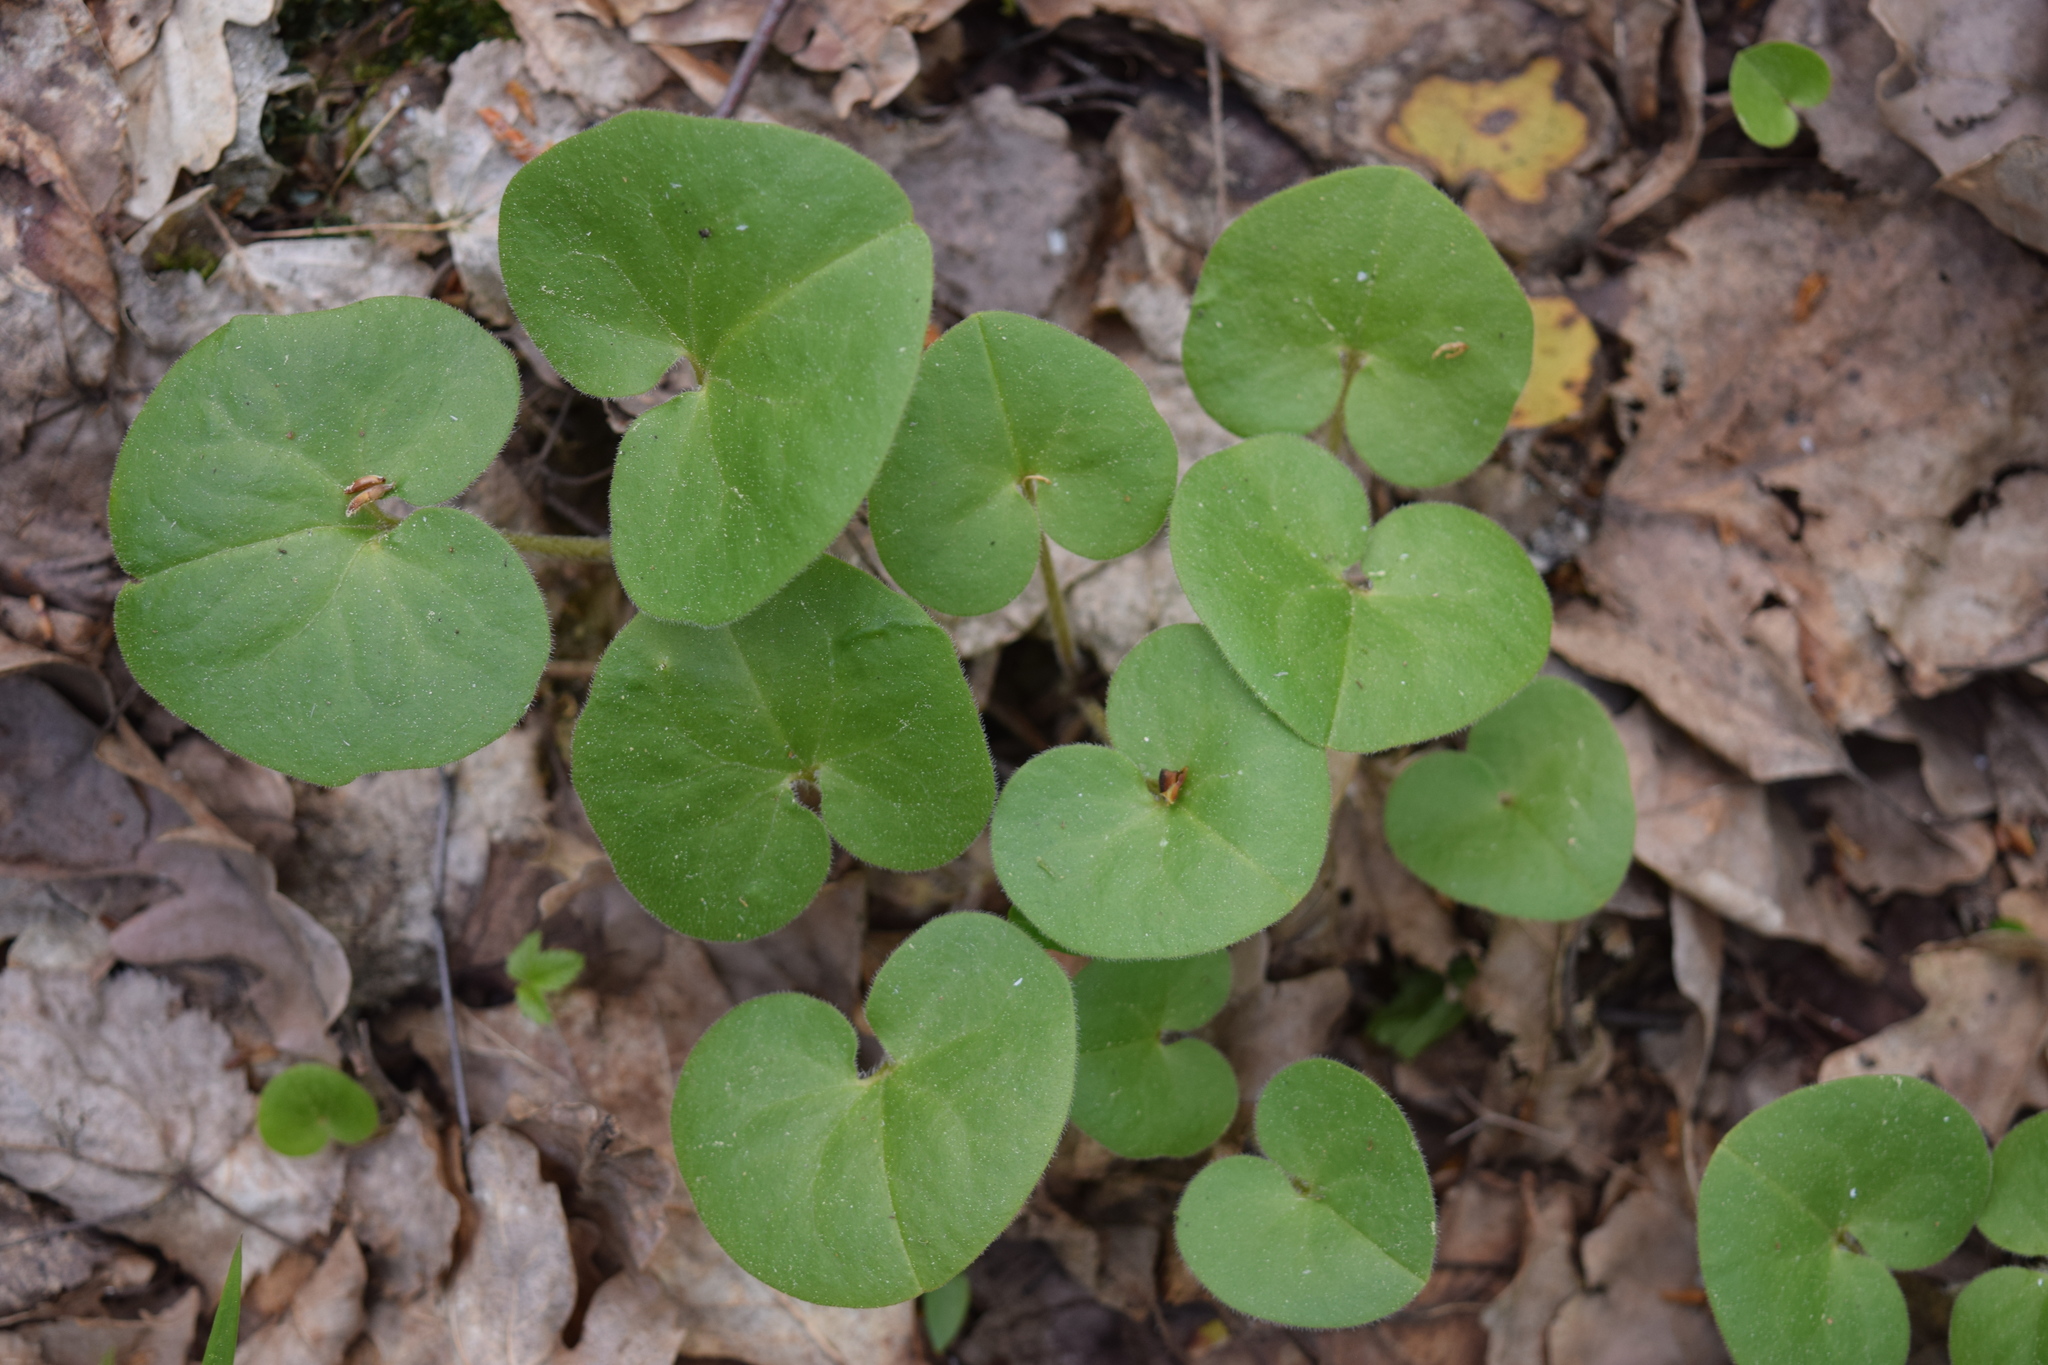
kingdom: Plantae
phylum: Tracheophyta
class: Magnoliopsida
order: Piperales
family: Aristolochiaceae
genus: Asarum
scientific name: Asarum europaeum
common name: Asarabacca
